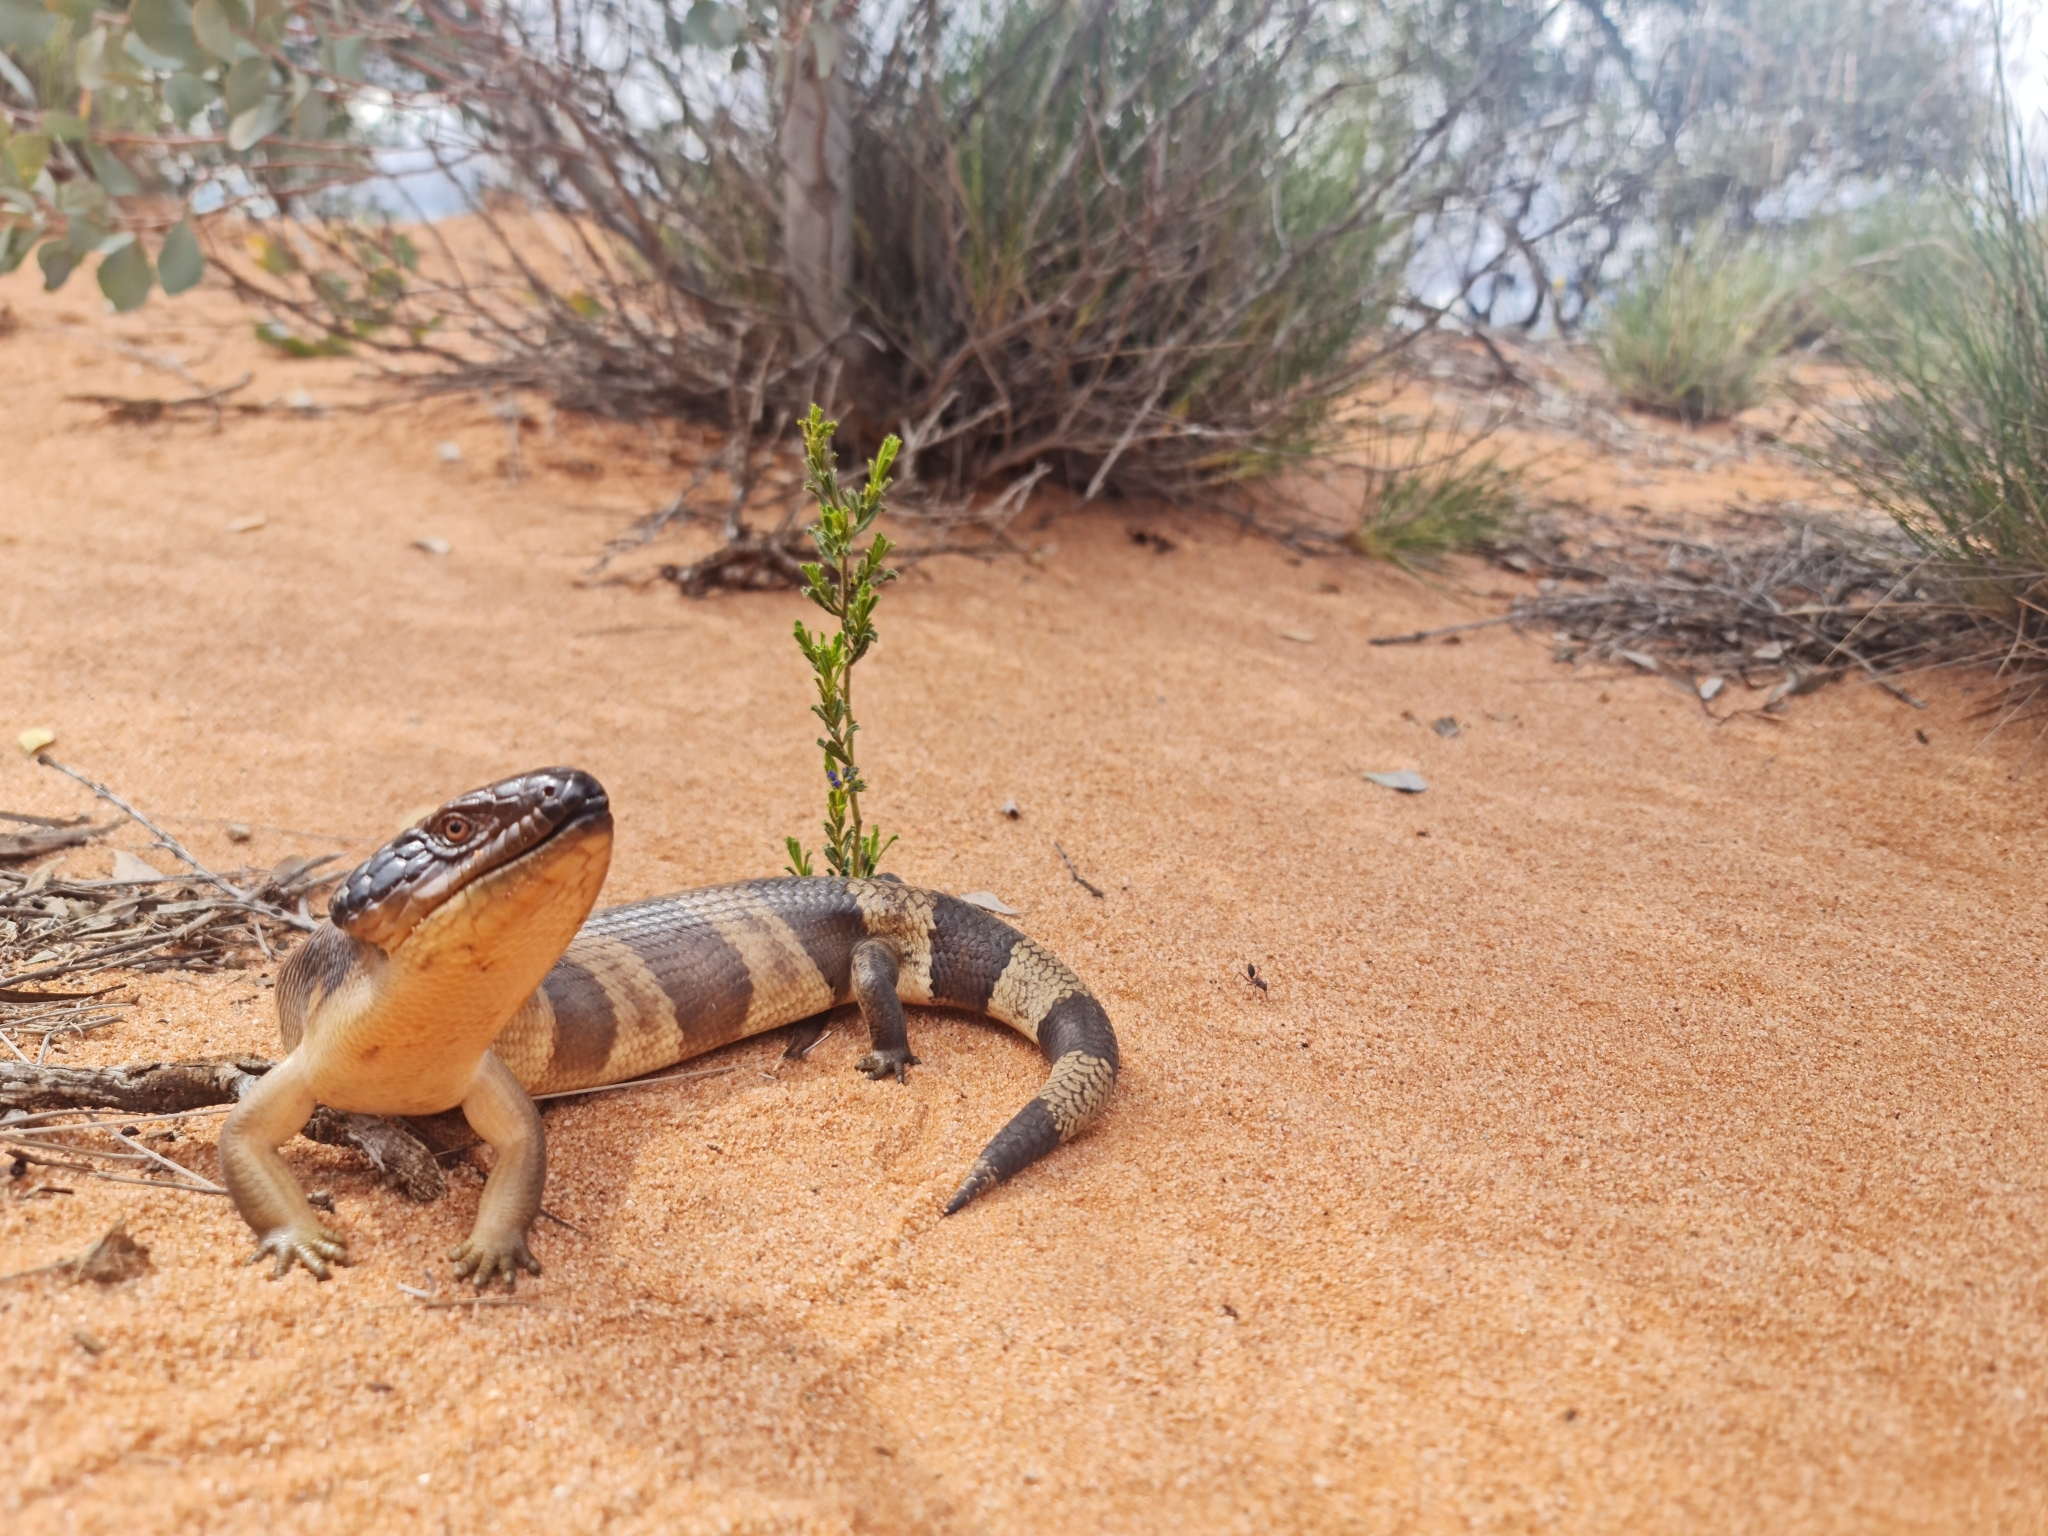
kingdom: Animalia
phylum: Chordata
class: Squamata
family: Scincidae
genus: Tiliqua
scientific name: Tiliqua occipitalis
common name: Western blue-tongued lizard
